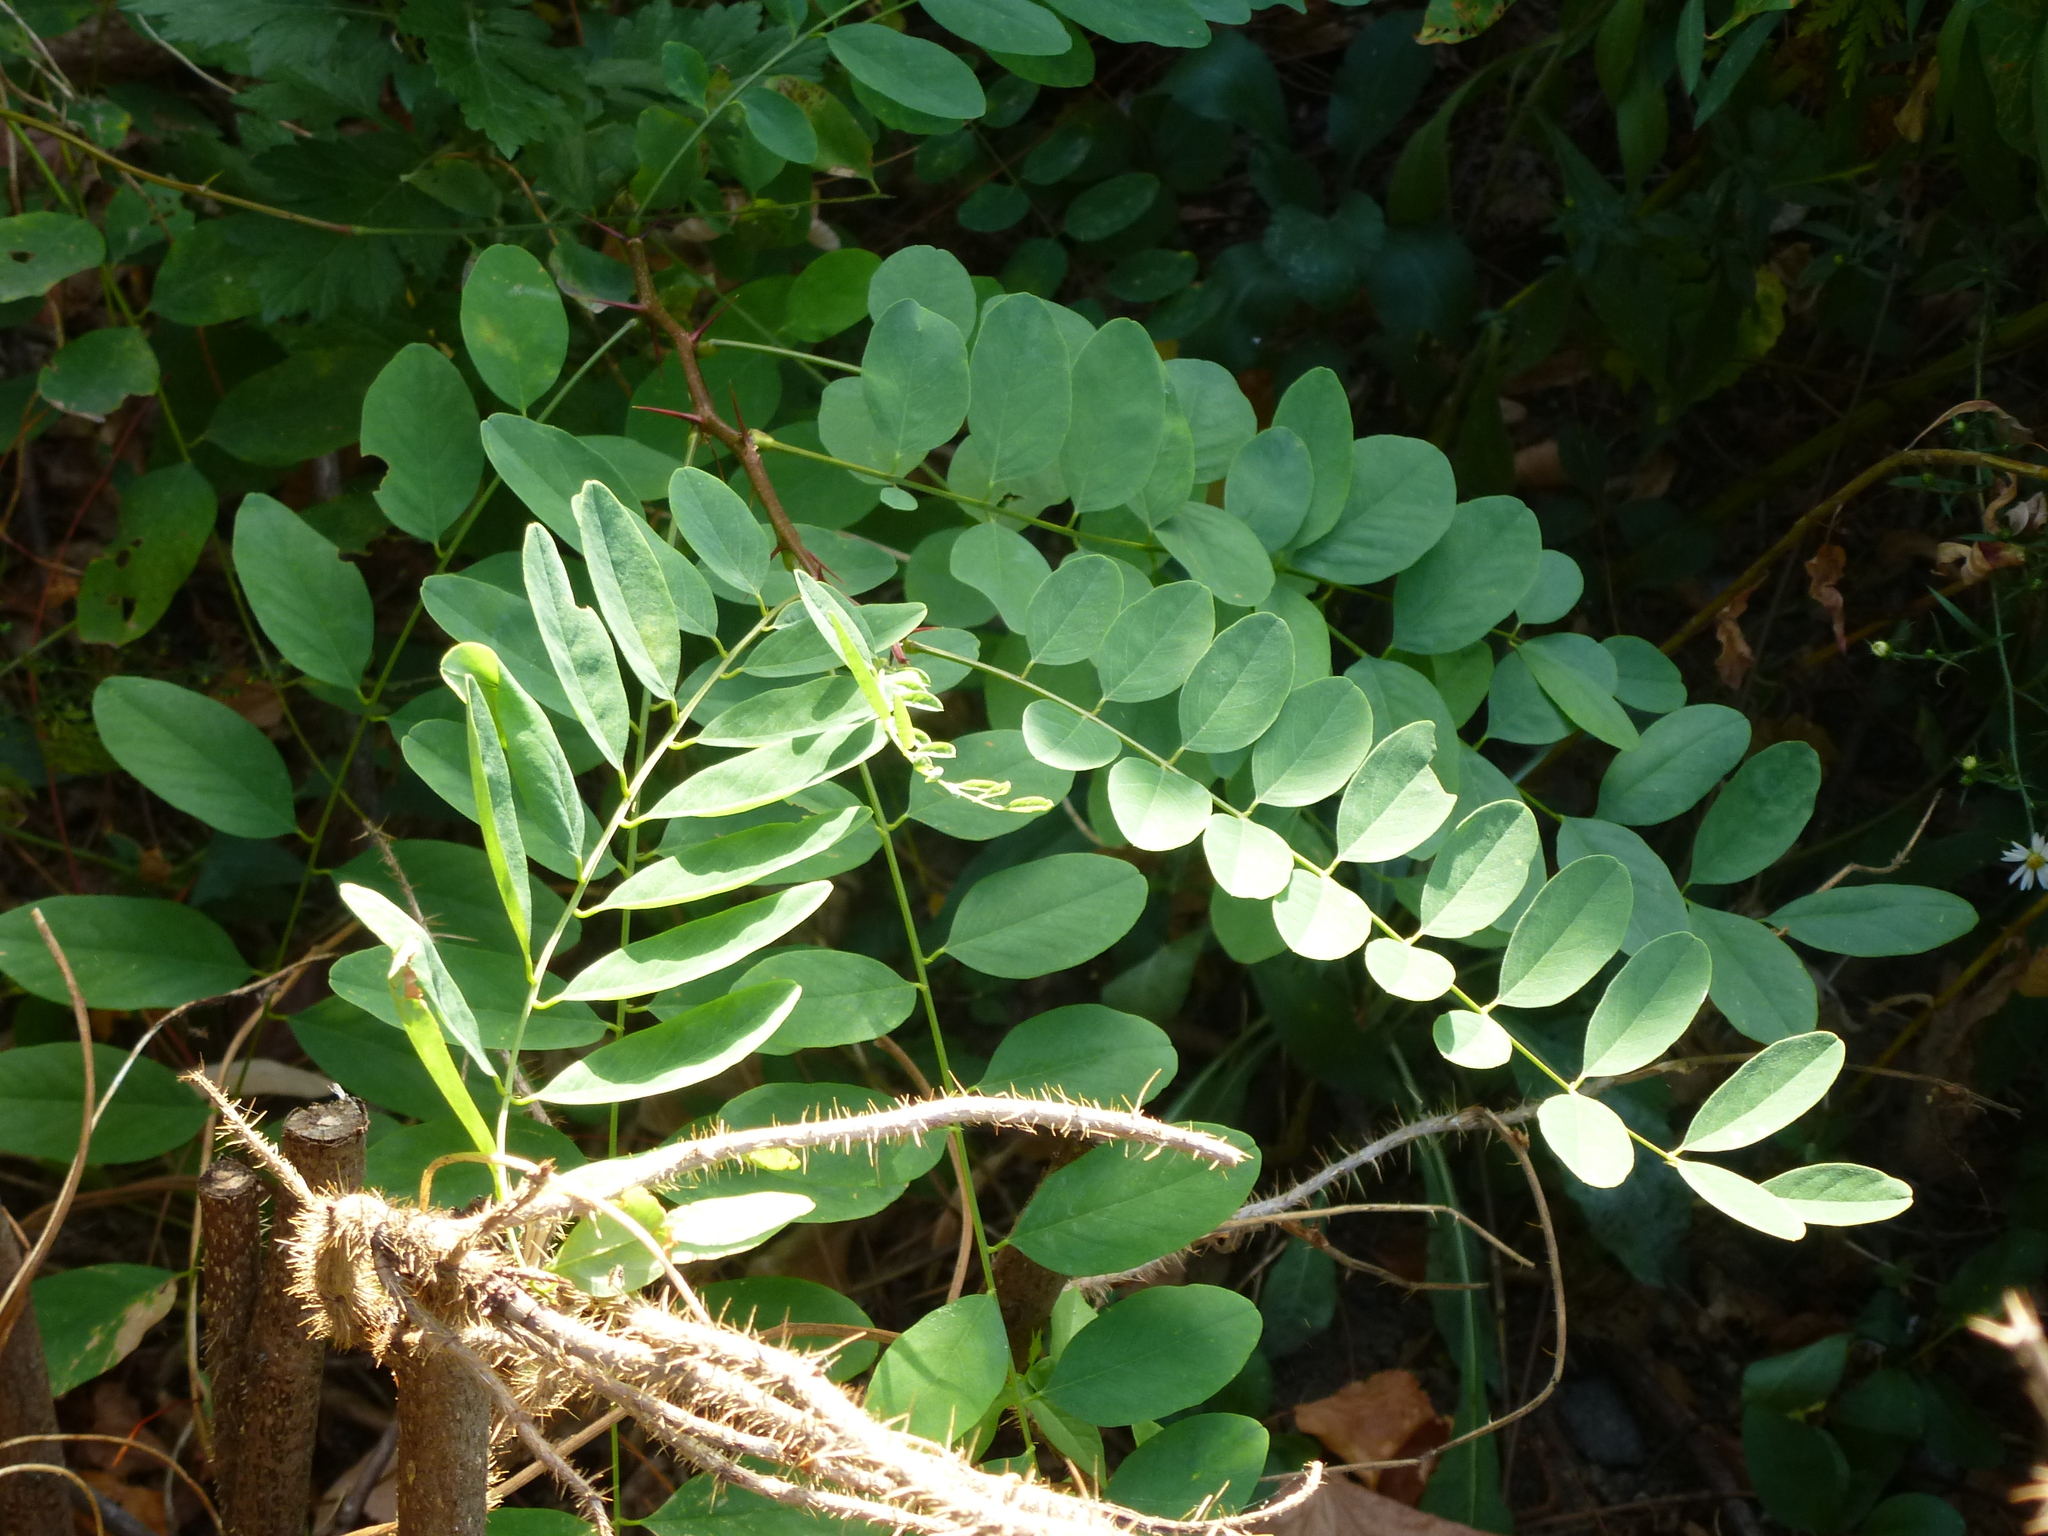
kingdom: Plantae
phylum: Tracheophyta
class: Magnoliopsida
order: Fabales
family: Fabaceae
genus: Robinia
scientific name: Robinia pseudoacacia
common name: Black locust
